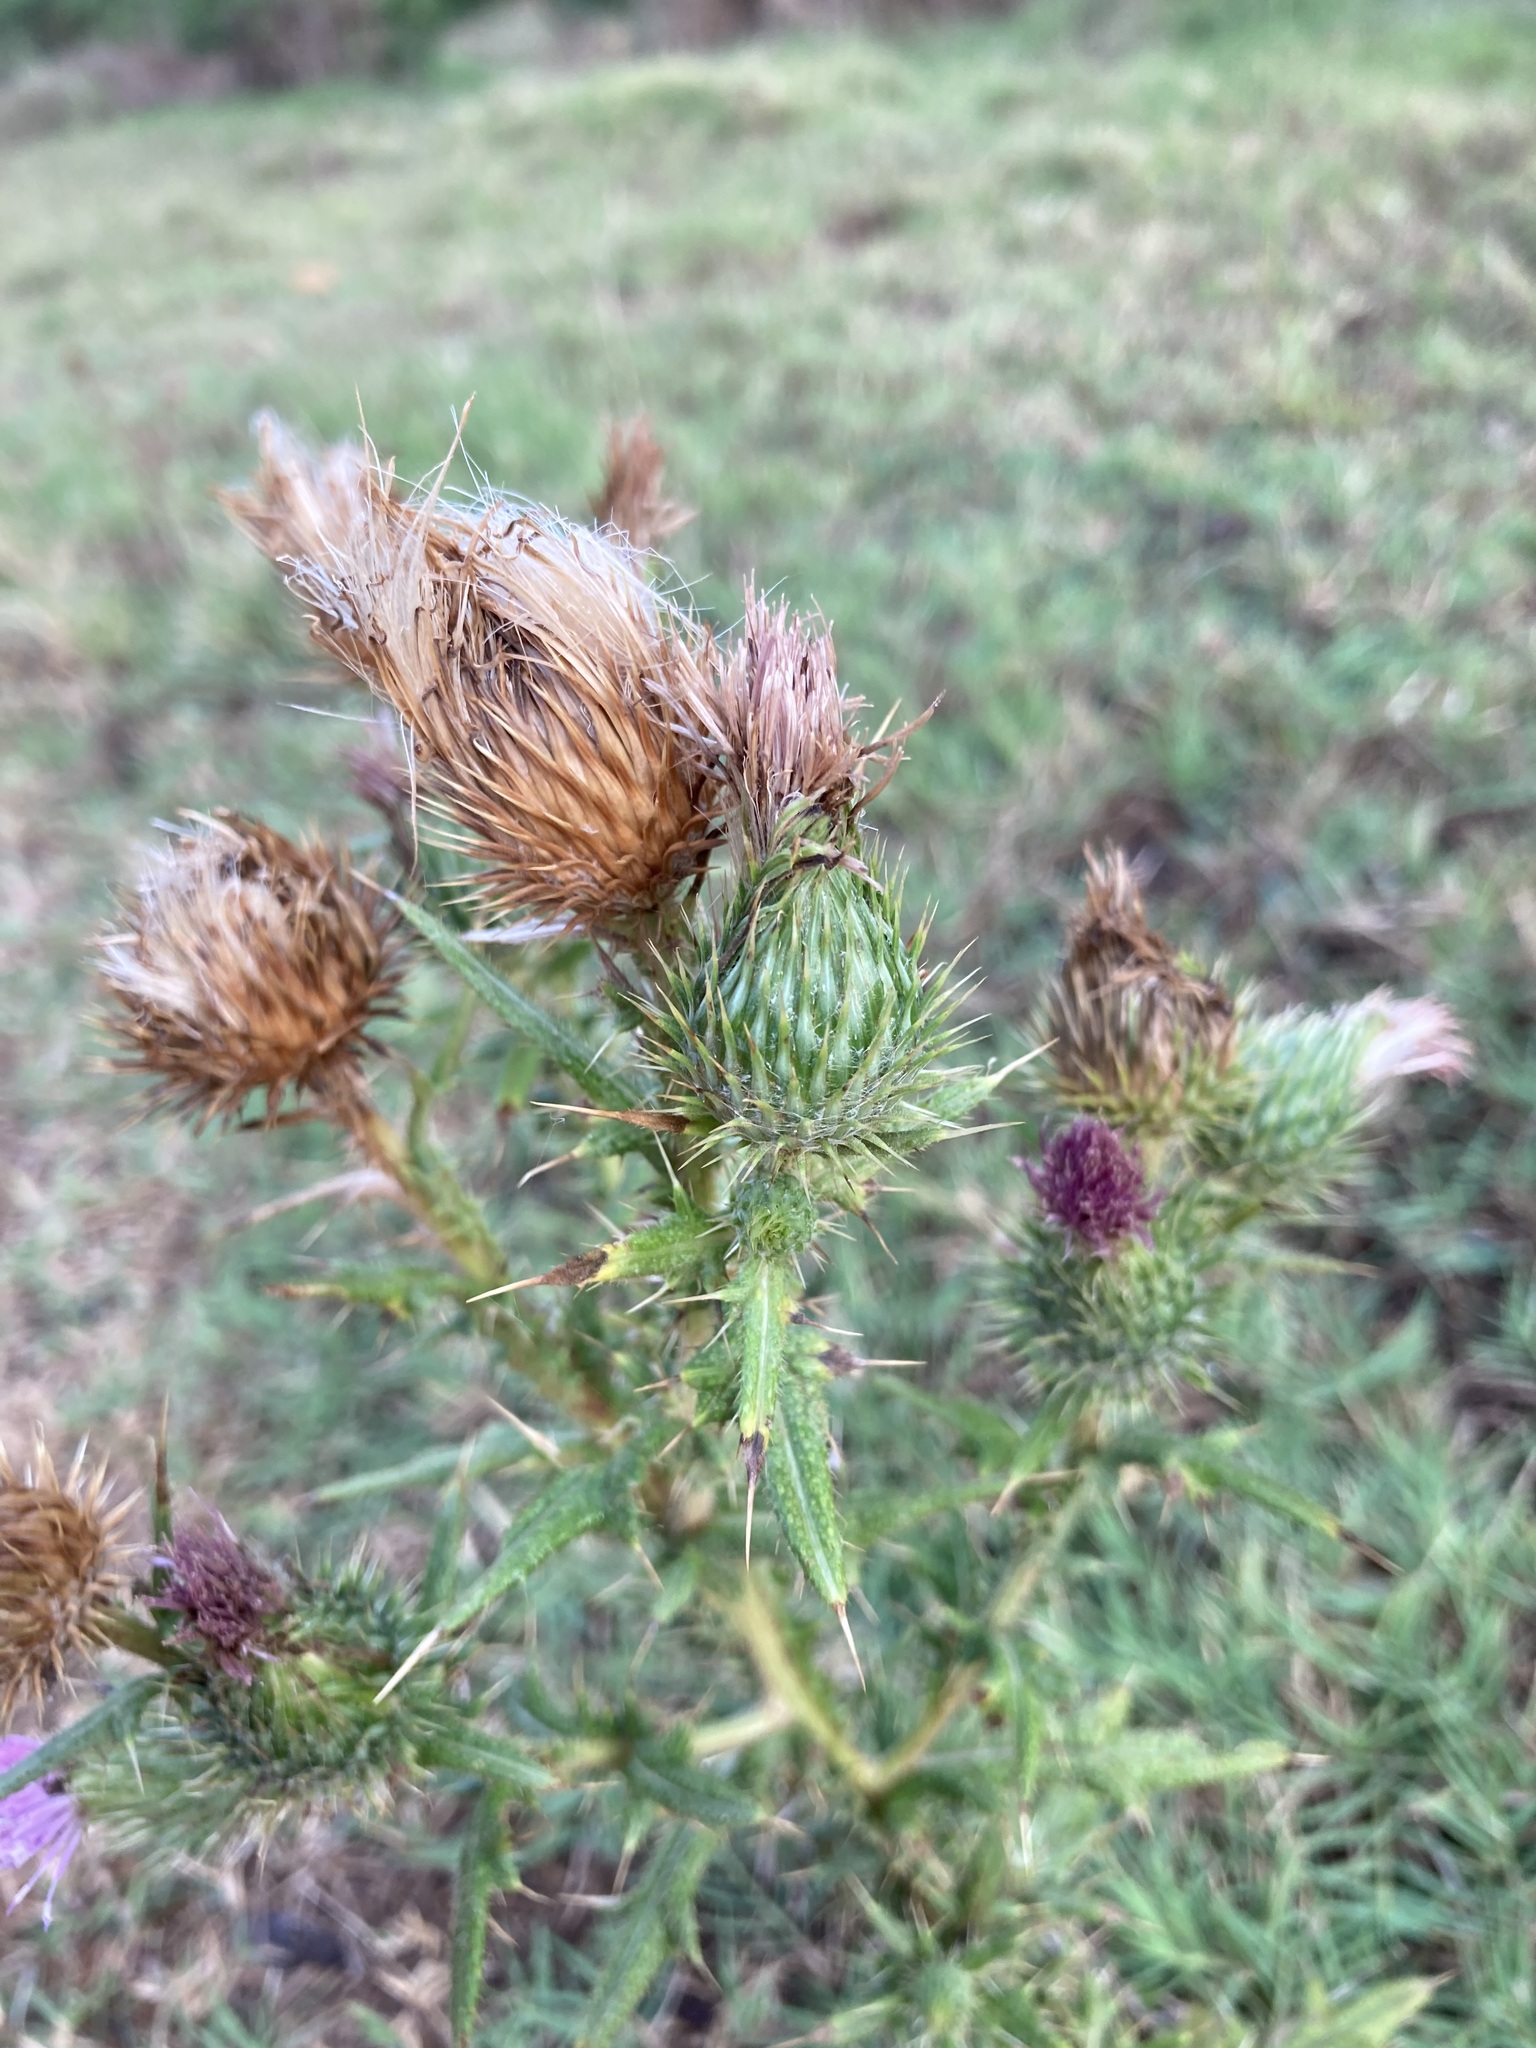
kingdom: Plantae
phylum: Tracheophyta
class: Magnoliopsida
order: Asterales
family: Asteraceae
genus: Cirsium
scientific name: Cirsium vulgare
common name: Bull thistle
